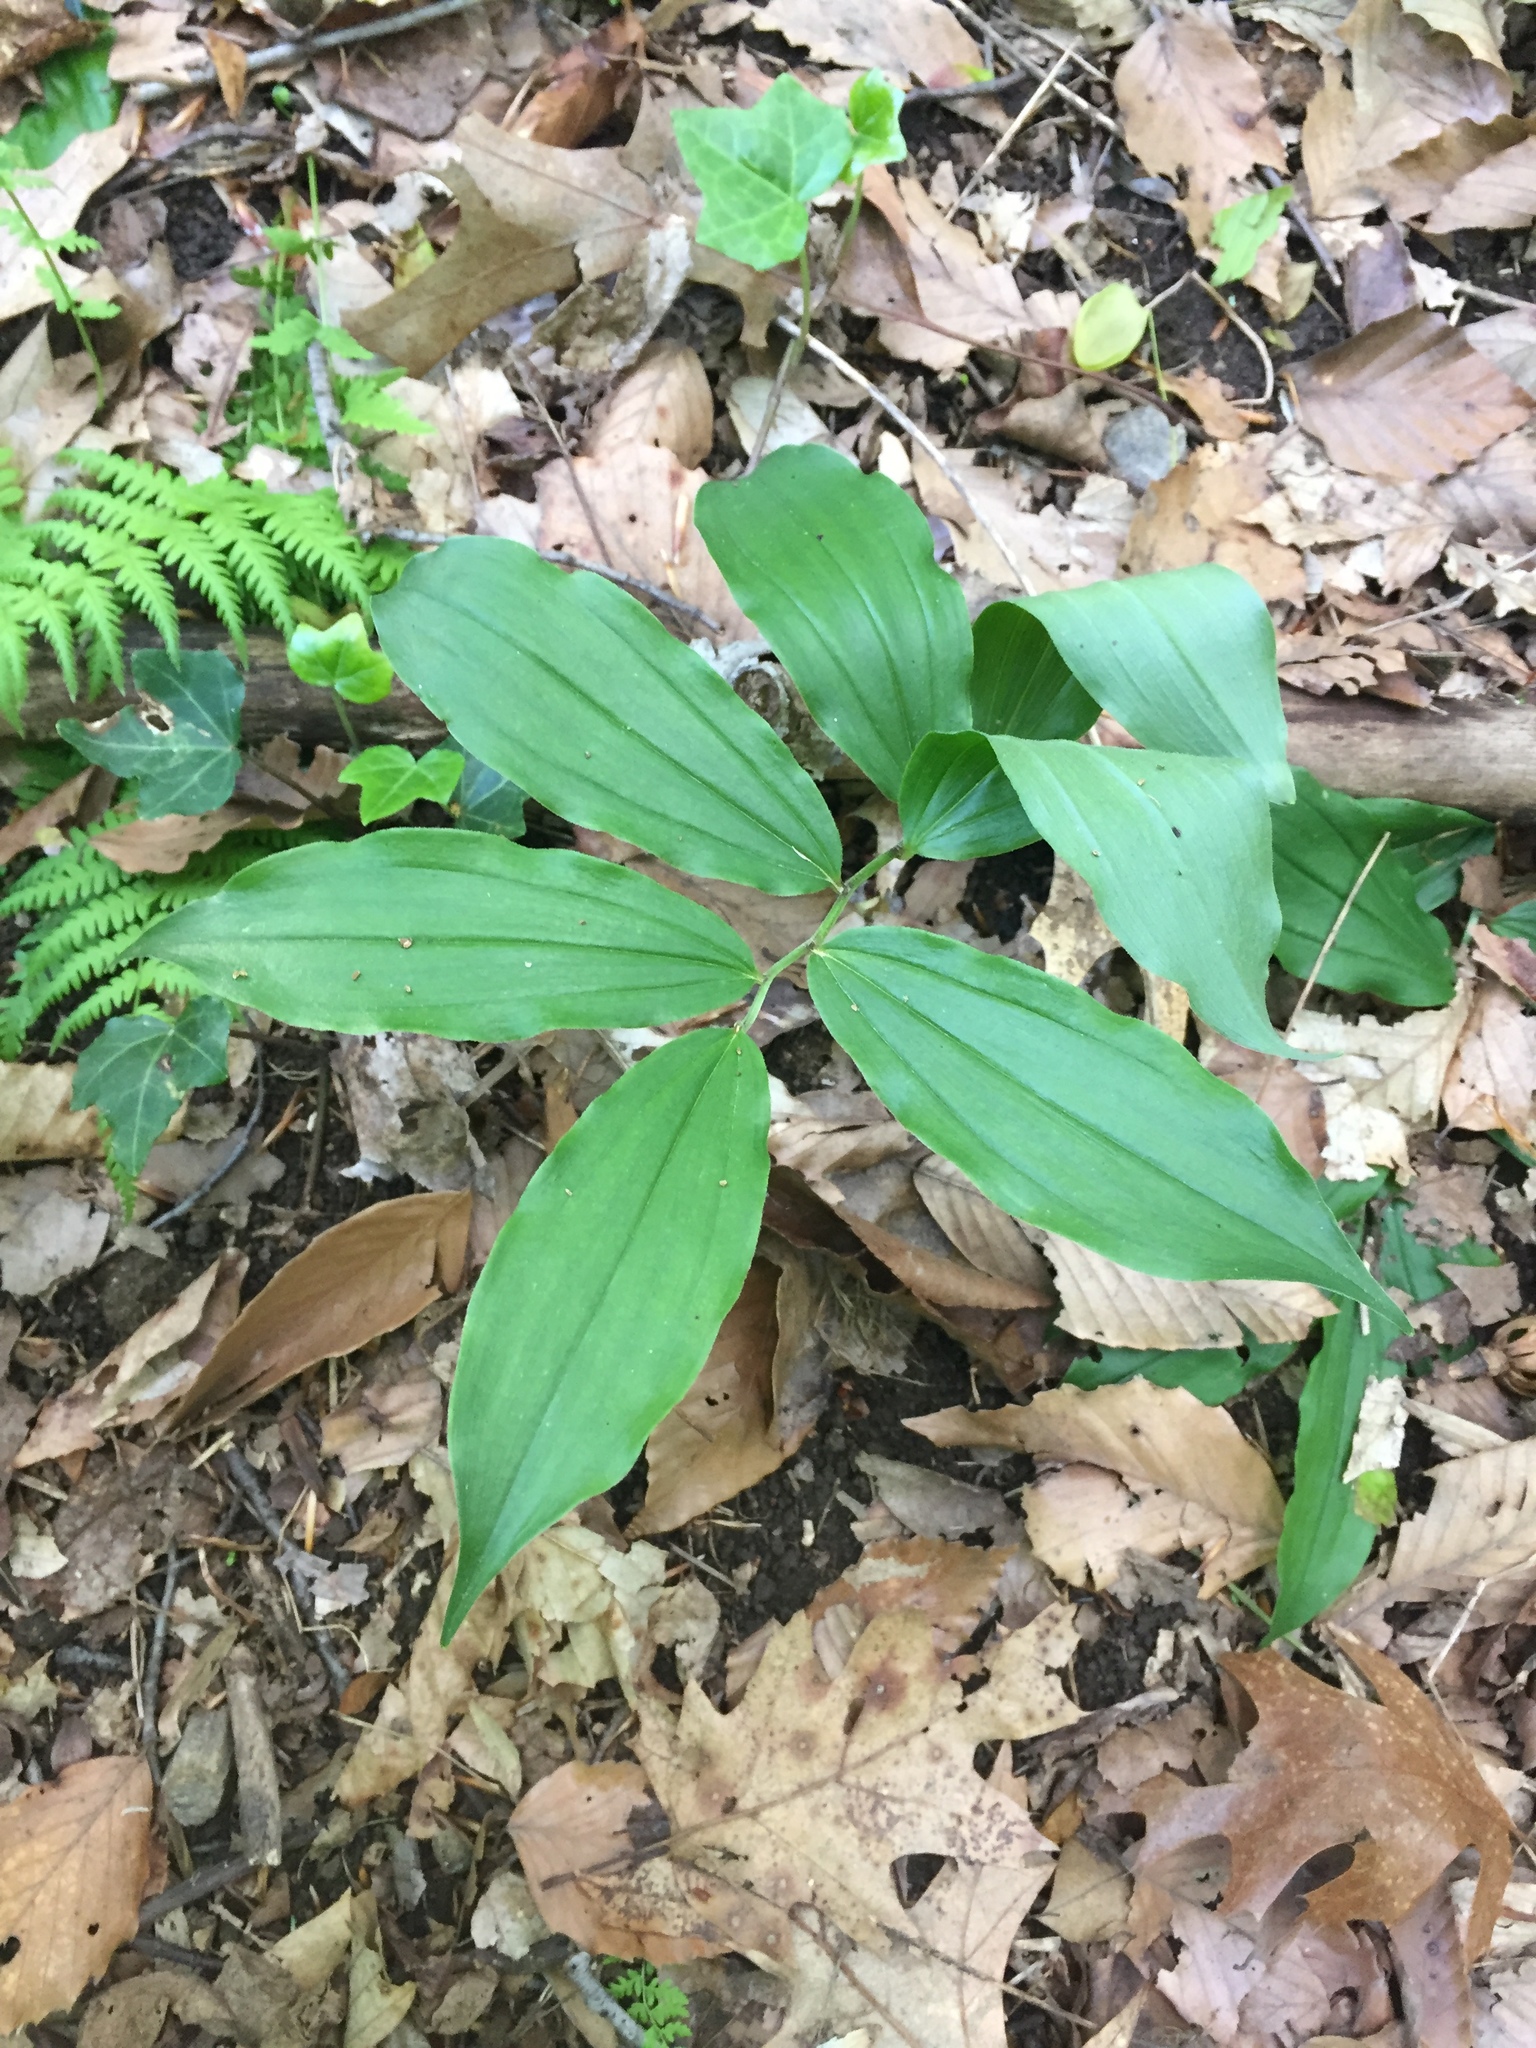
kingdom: Plantae
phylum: Tracheophyta
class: Liliopsida
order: Asparagales
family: Asparagaceae
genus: Maianthemum
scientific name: Maianthemum racemosum
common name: False spikenard
